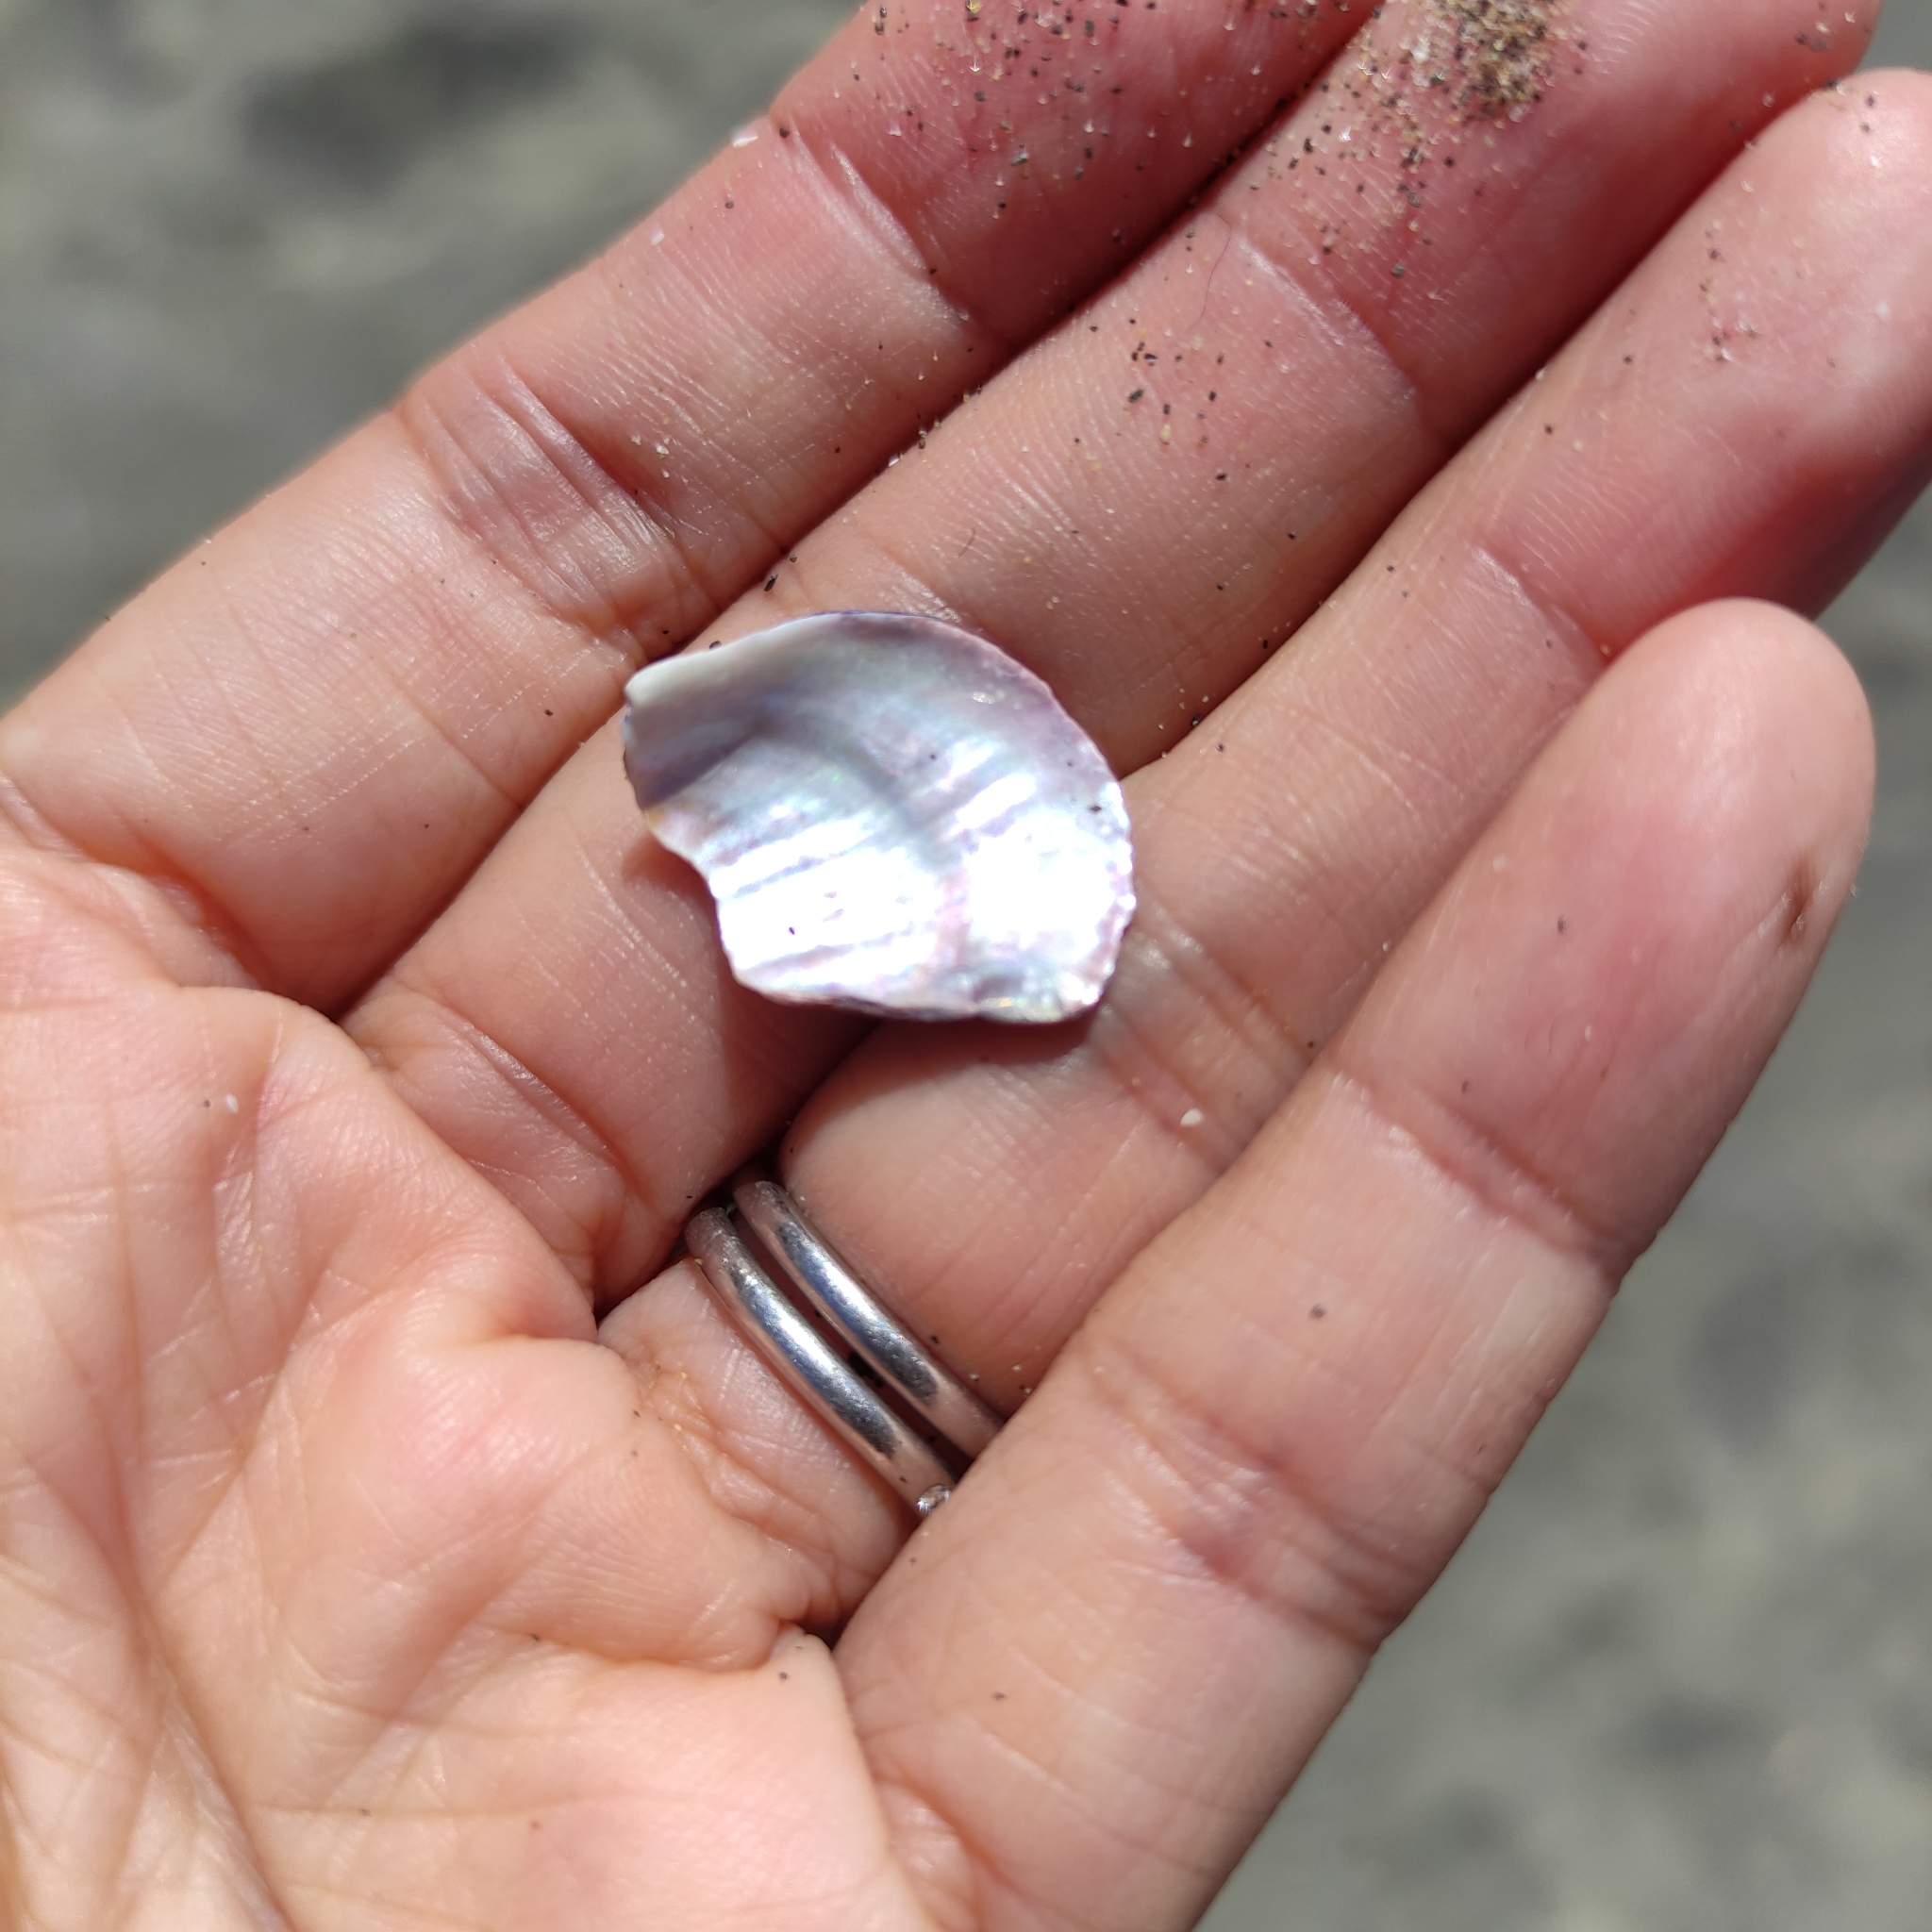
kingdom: Animalia
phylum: Mollusca
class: Bivalvia
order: Mytilida
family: Mytilidae
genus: Aulacomya
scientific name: Aulacomya maoriana
